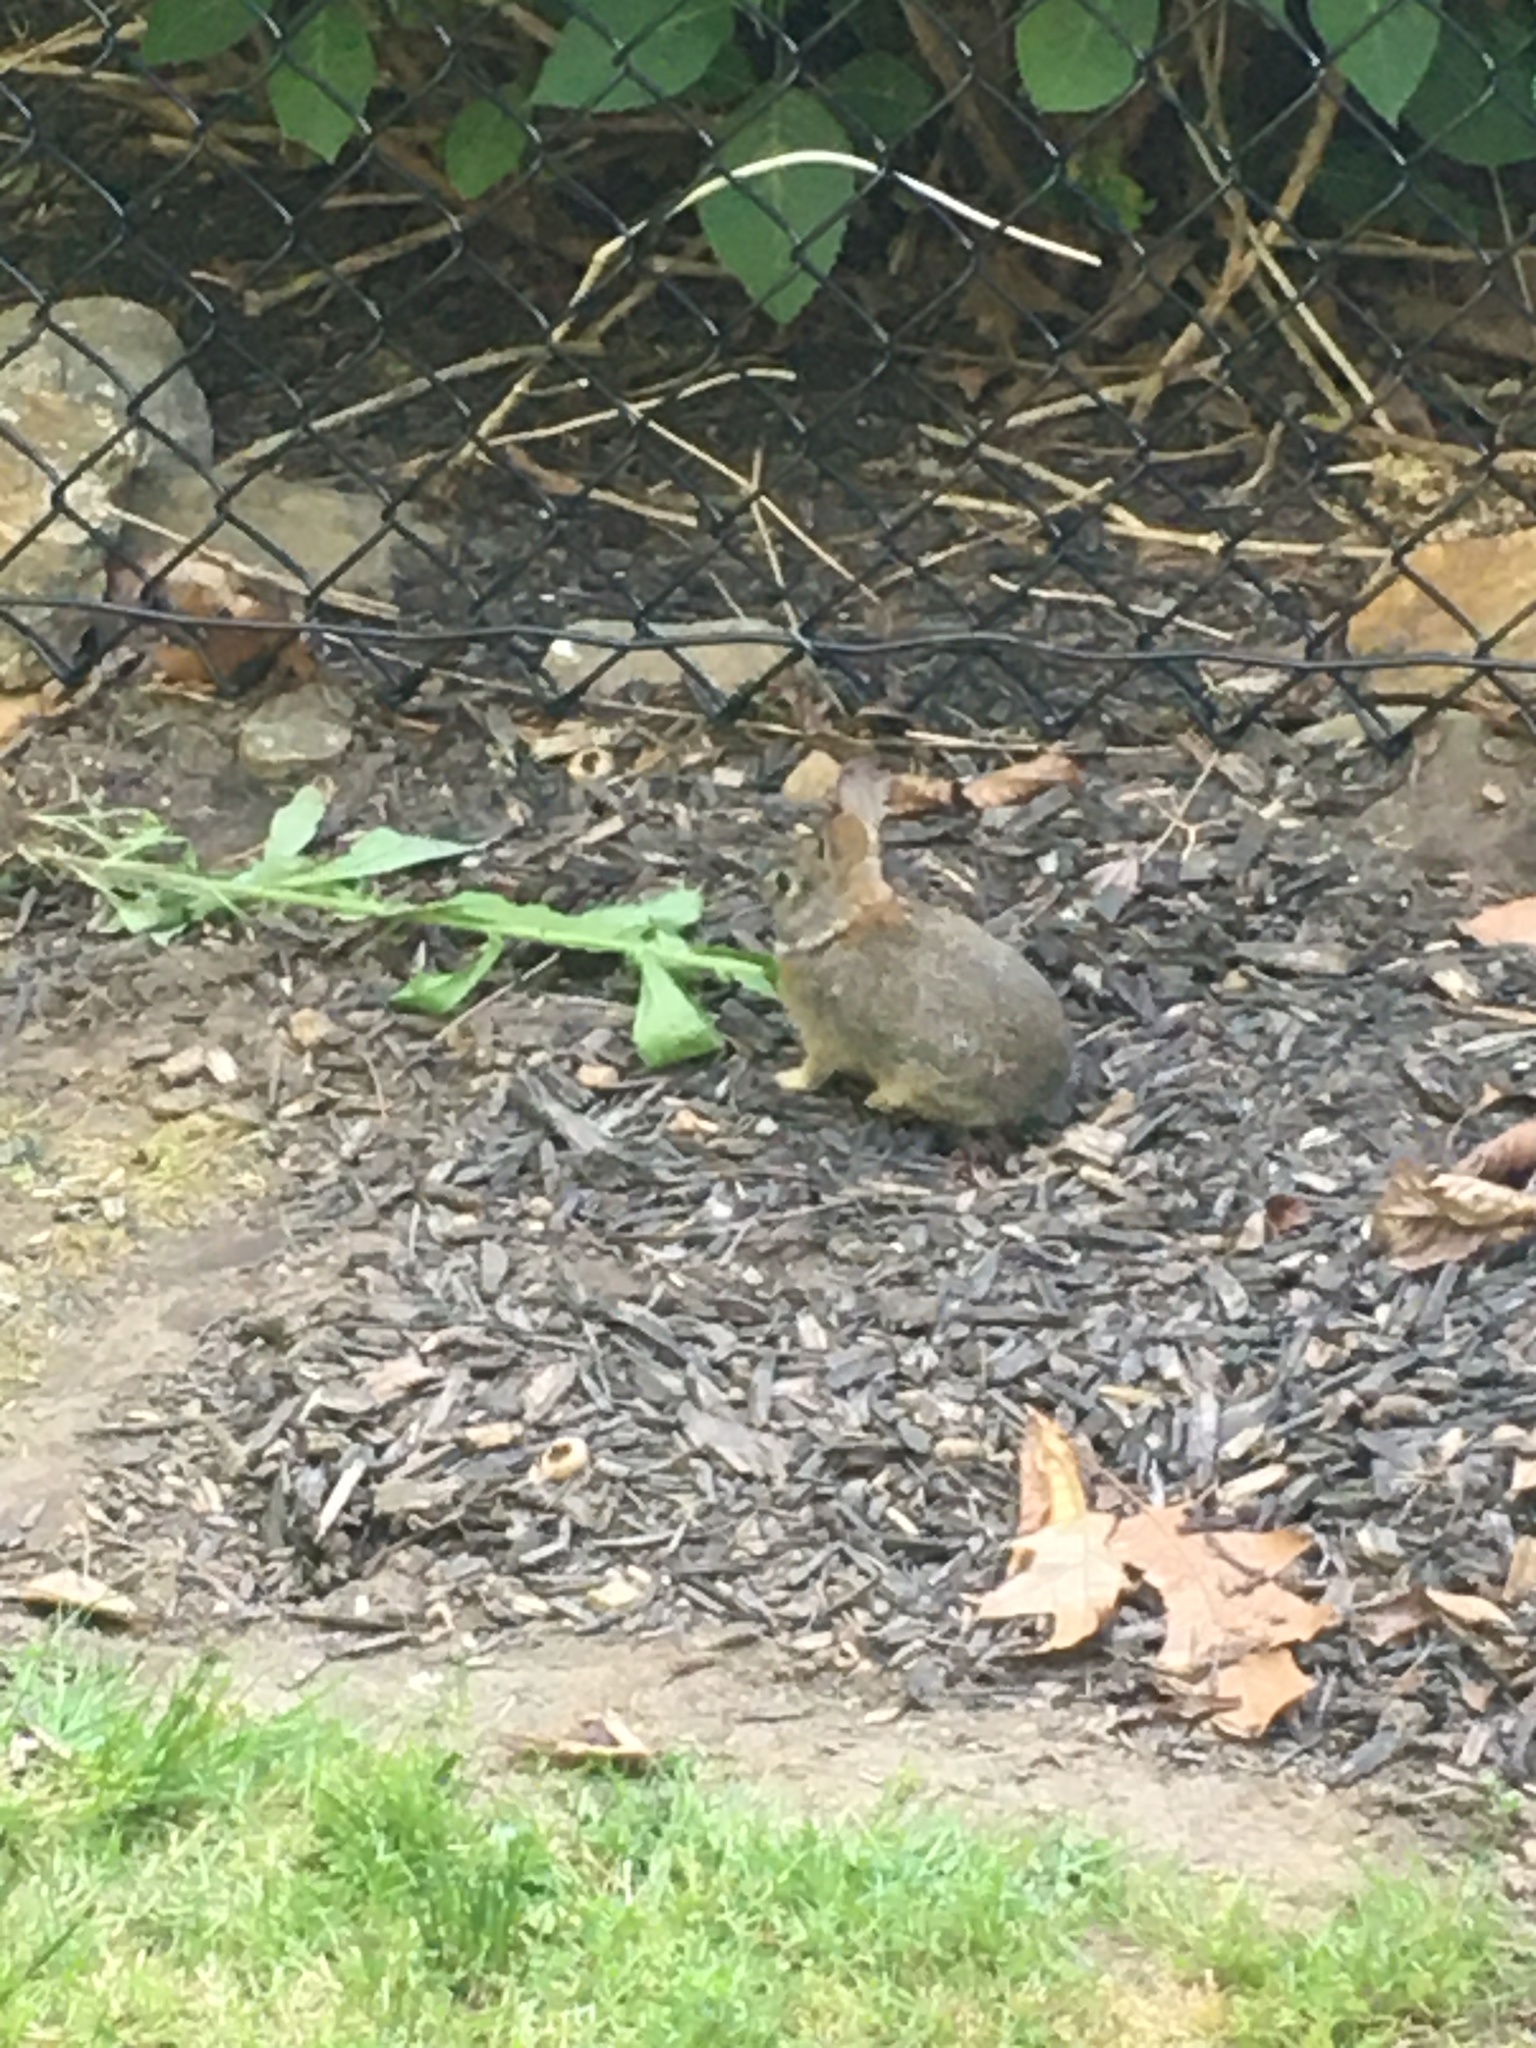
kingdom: Animalia
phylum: Chordata
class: Mammalia
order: Lagomorpha
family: Leporidae
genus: Sylvilagus
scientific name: Sylvilagus floridanus
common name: Eastern cottontail
